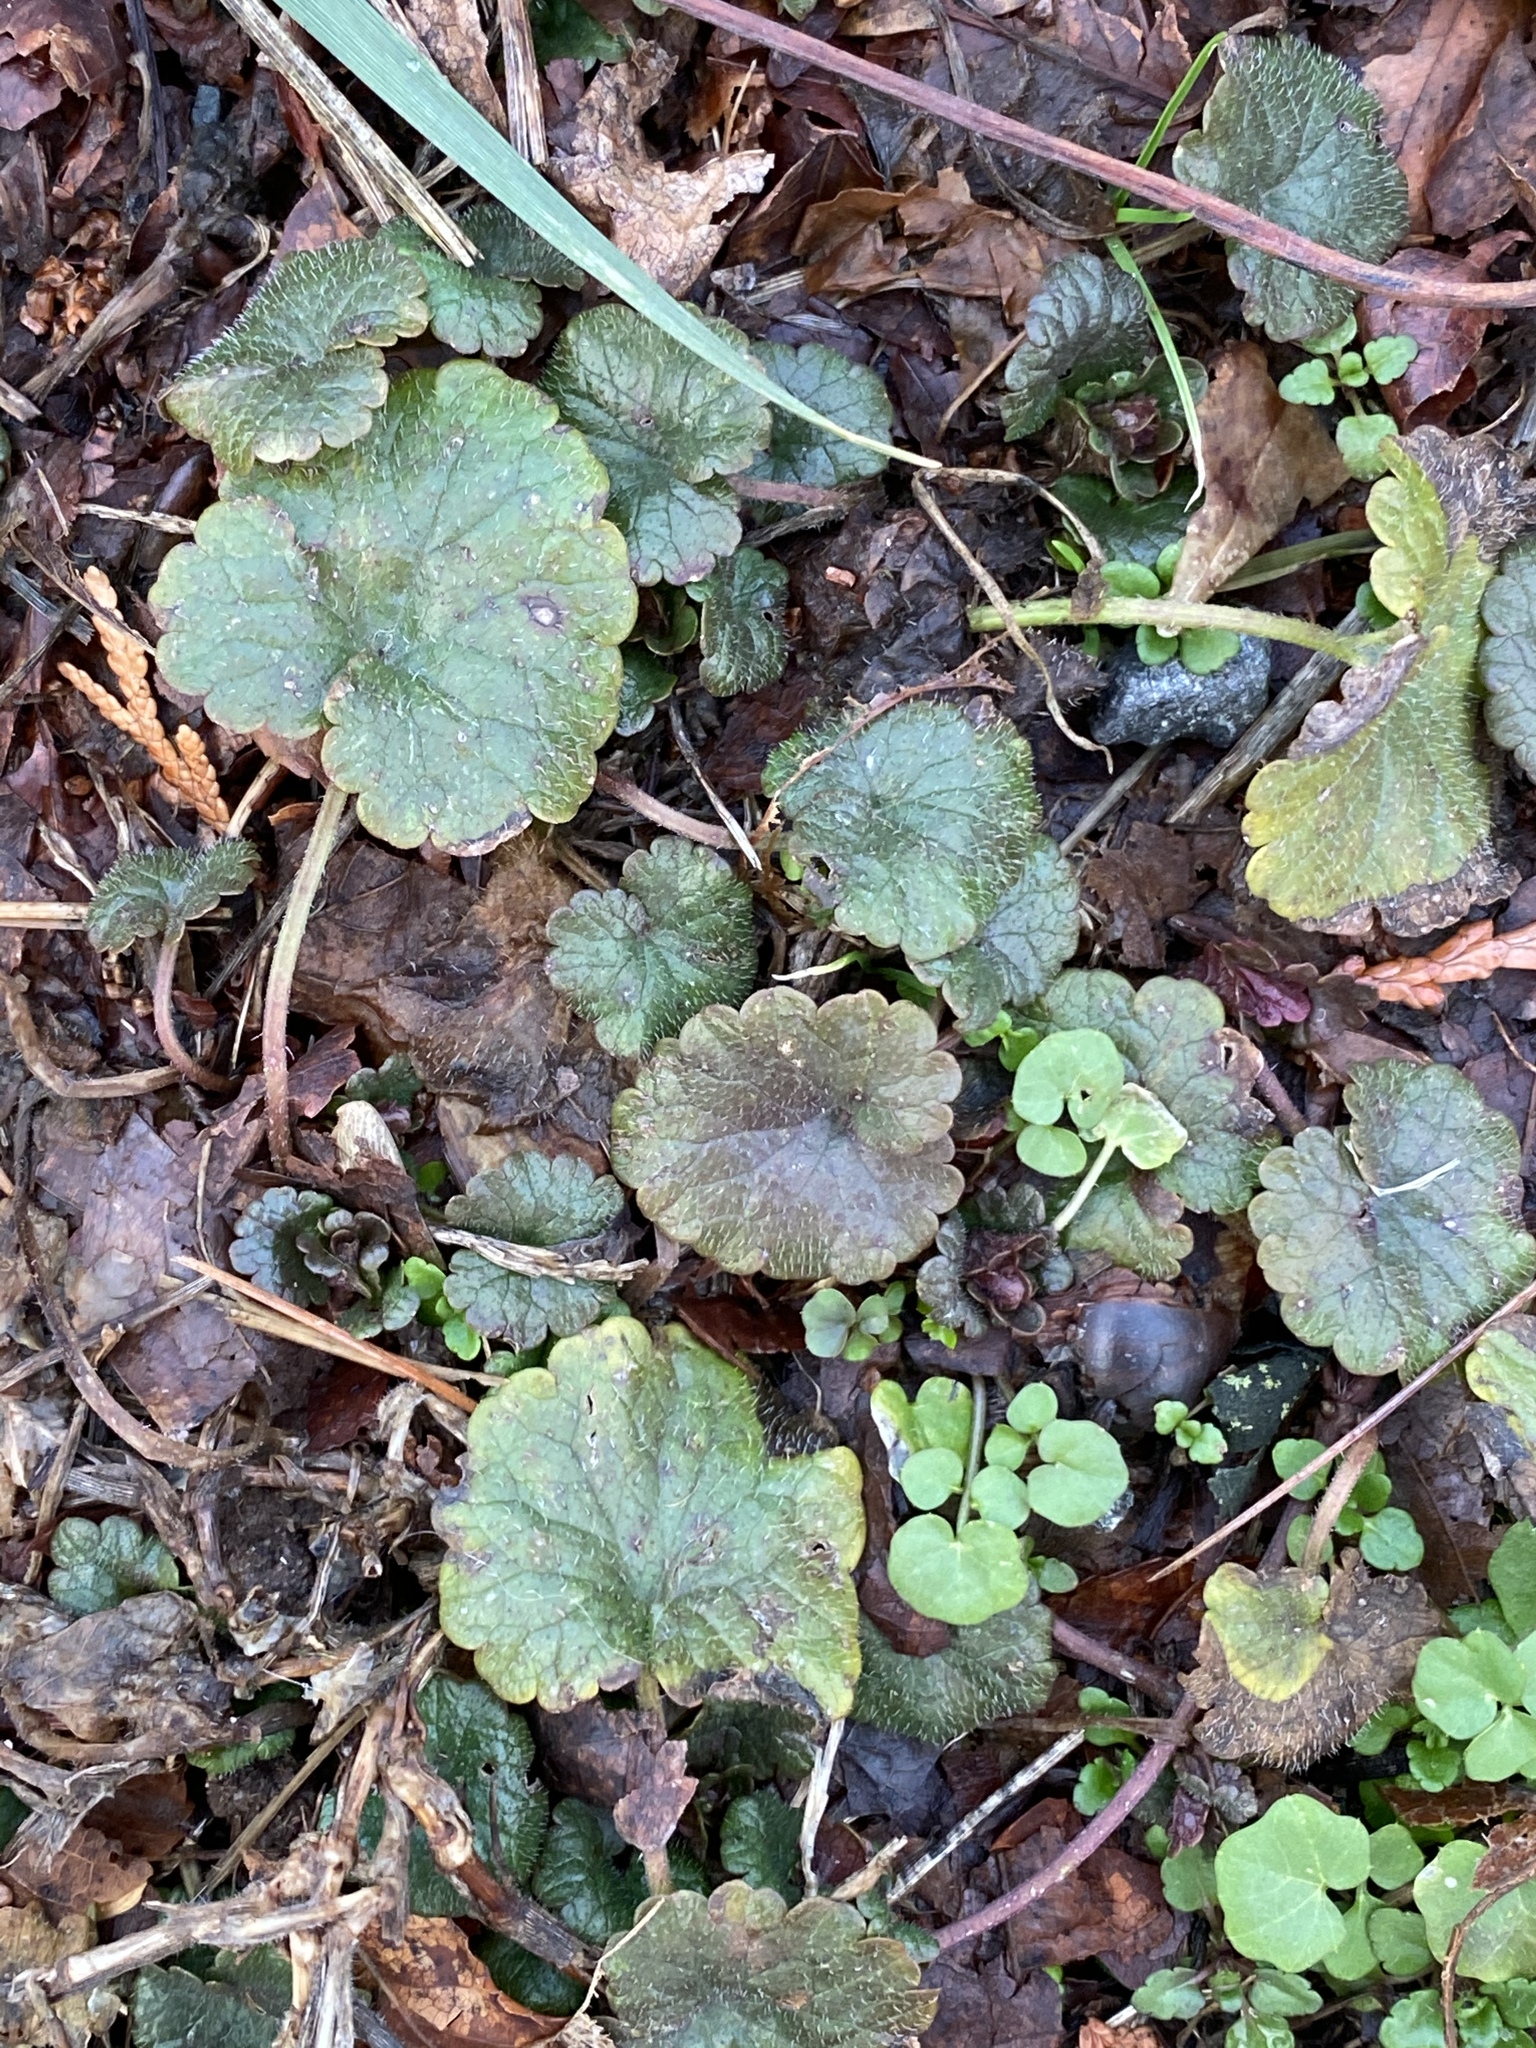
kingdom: Plantae
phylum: Tracheophyta
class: Magnoliopsida
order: Lamiales
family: Lamiaceae
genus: Glechoma
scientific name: Glechoma hederacea
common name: Ground ivy
